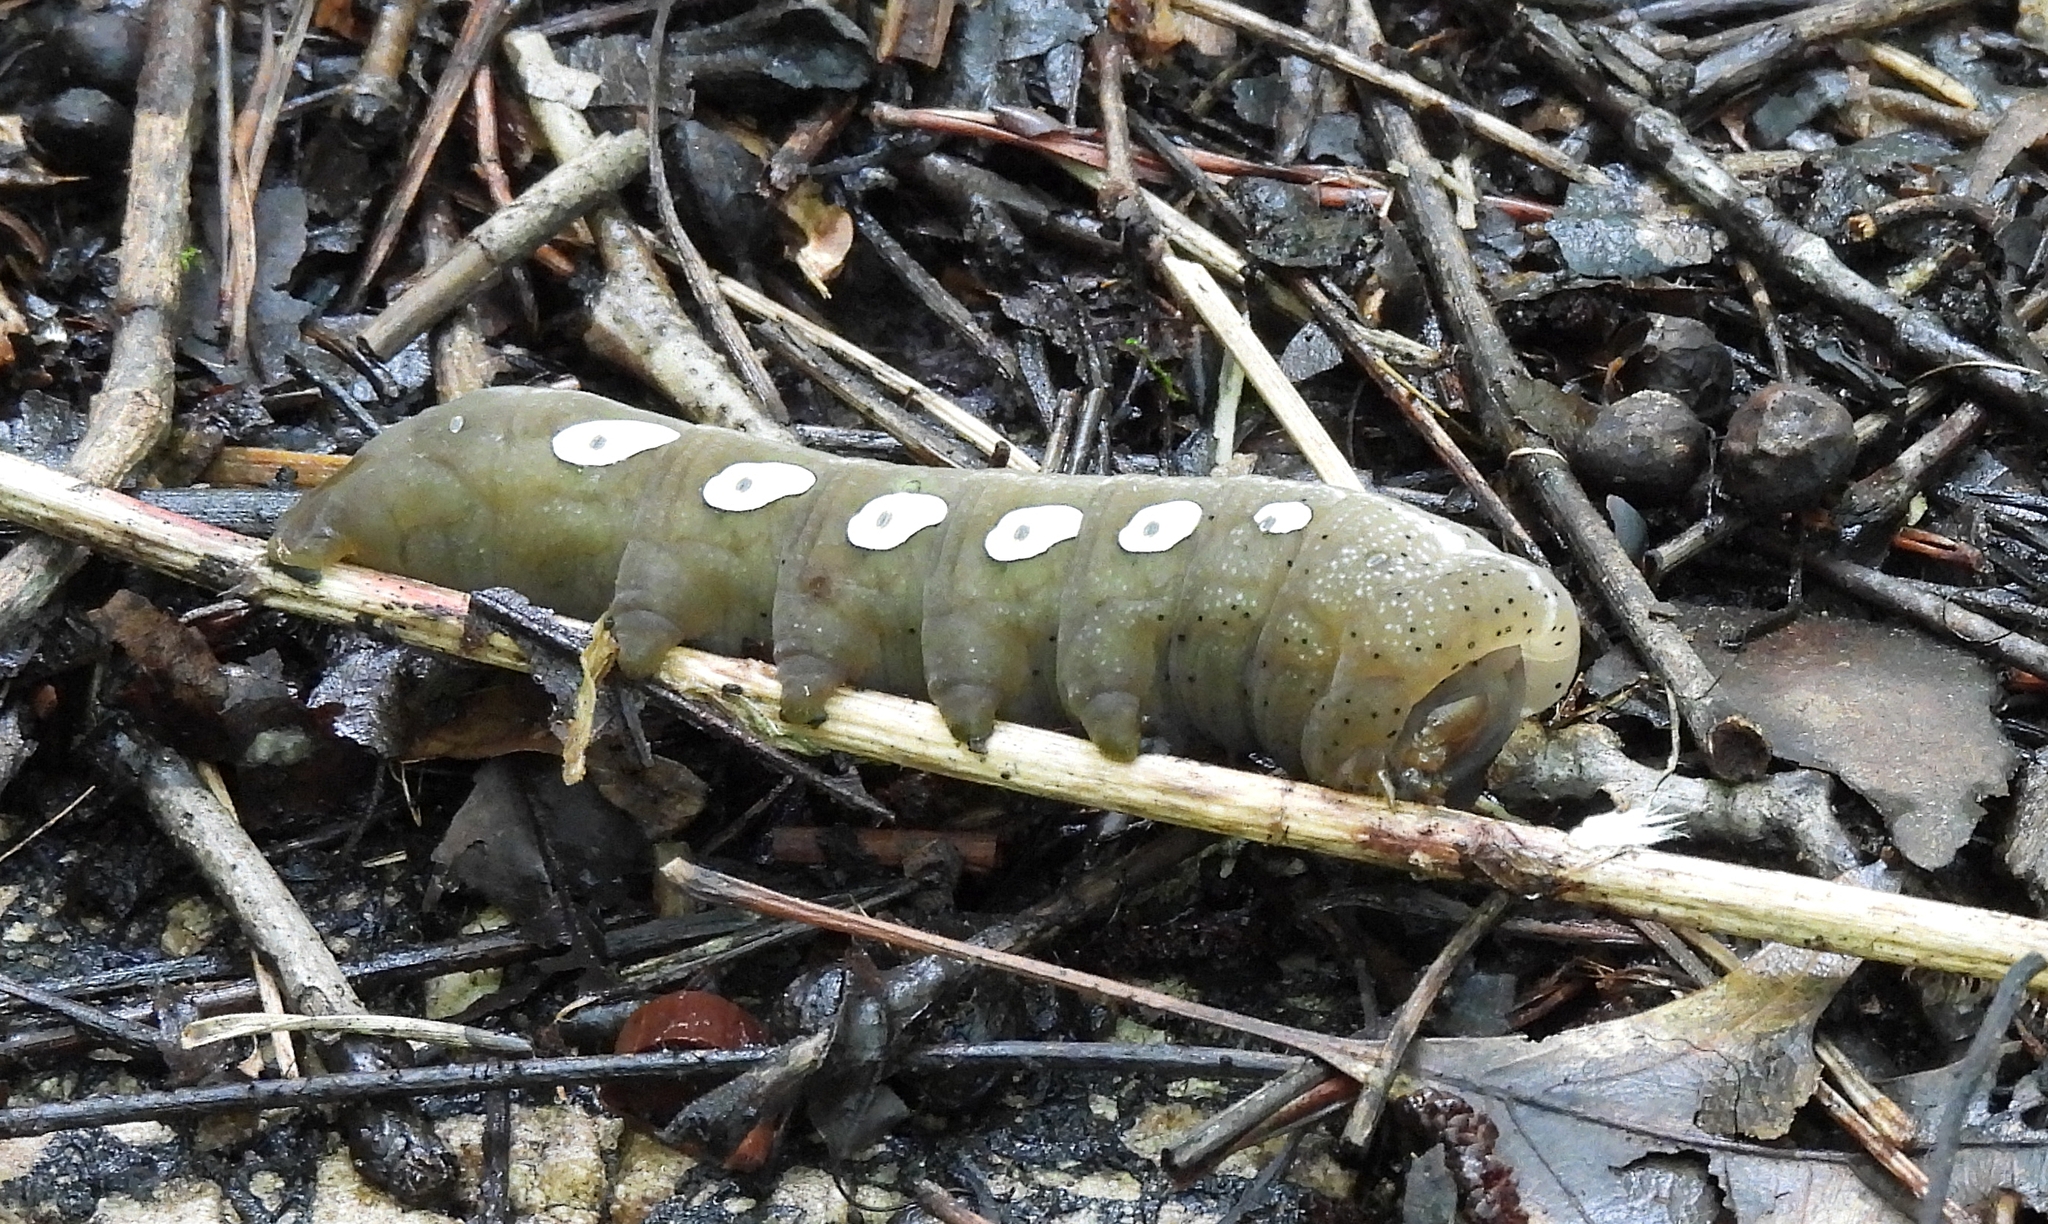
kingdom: Animalia
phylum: Arthropoda
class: Insecta
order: Lepidoptera
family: Sphingidae
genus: Eumorpha
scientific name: Eumorpha pandorus
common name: Pandora sphinx
